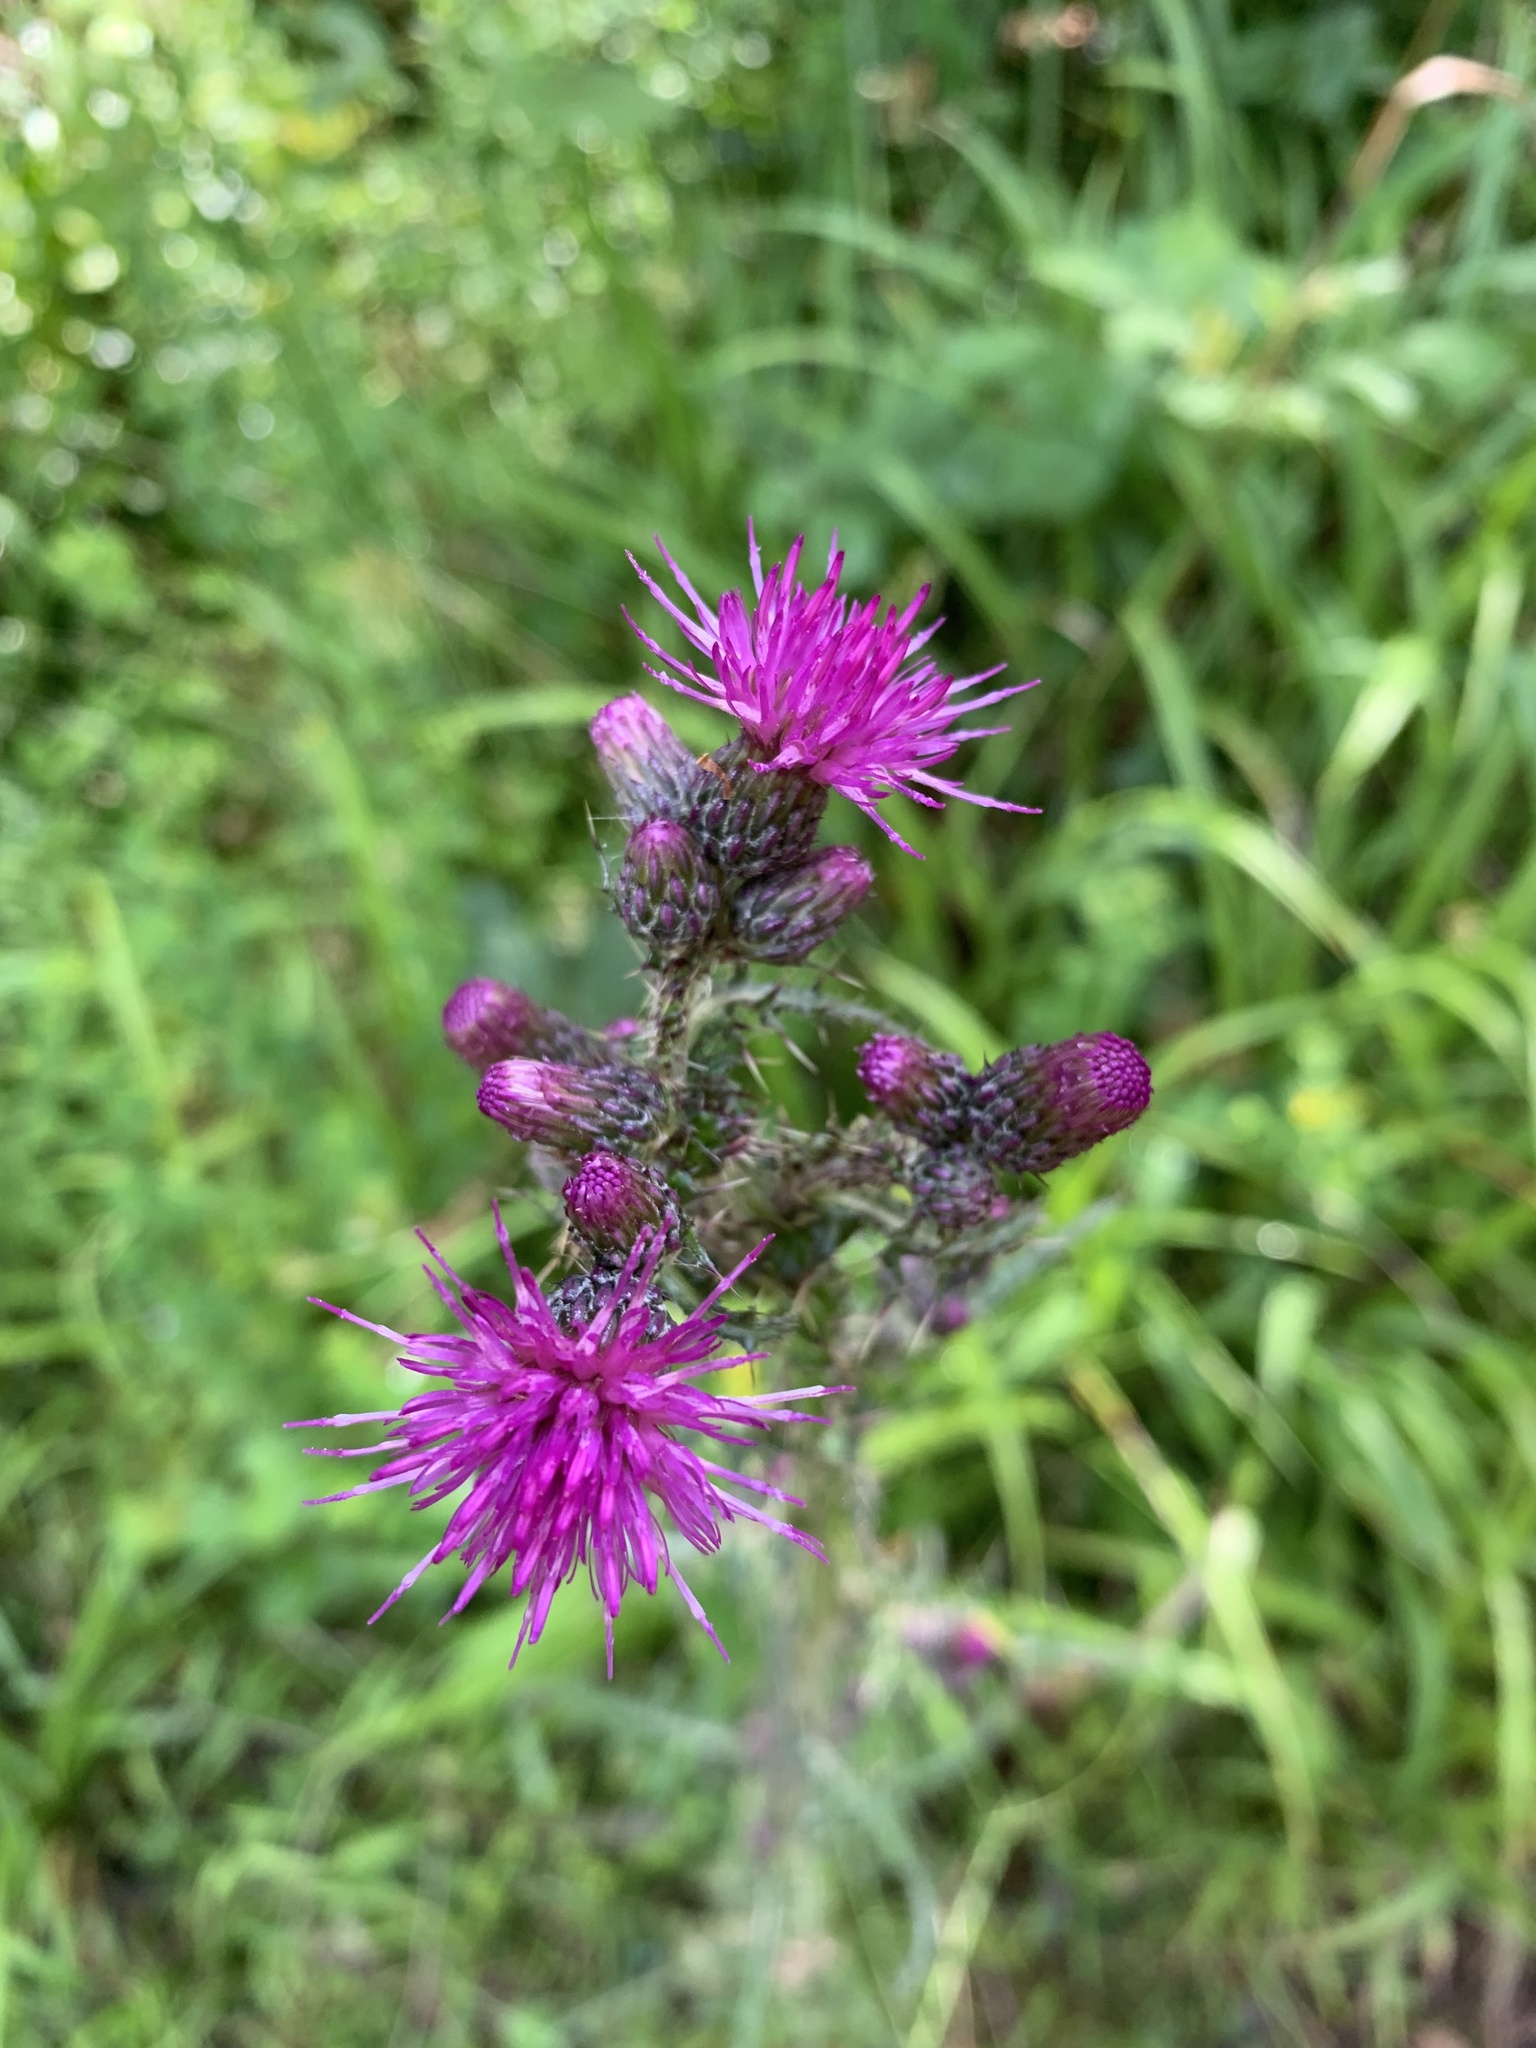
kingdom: Plantae
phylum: Tracheophyta
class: Magnoliopsida
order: Asterales
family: Asteraceae
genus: Cirsium
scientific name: Cirsium palustre
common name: Marsh thistle
